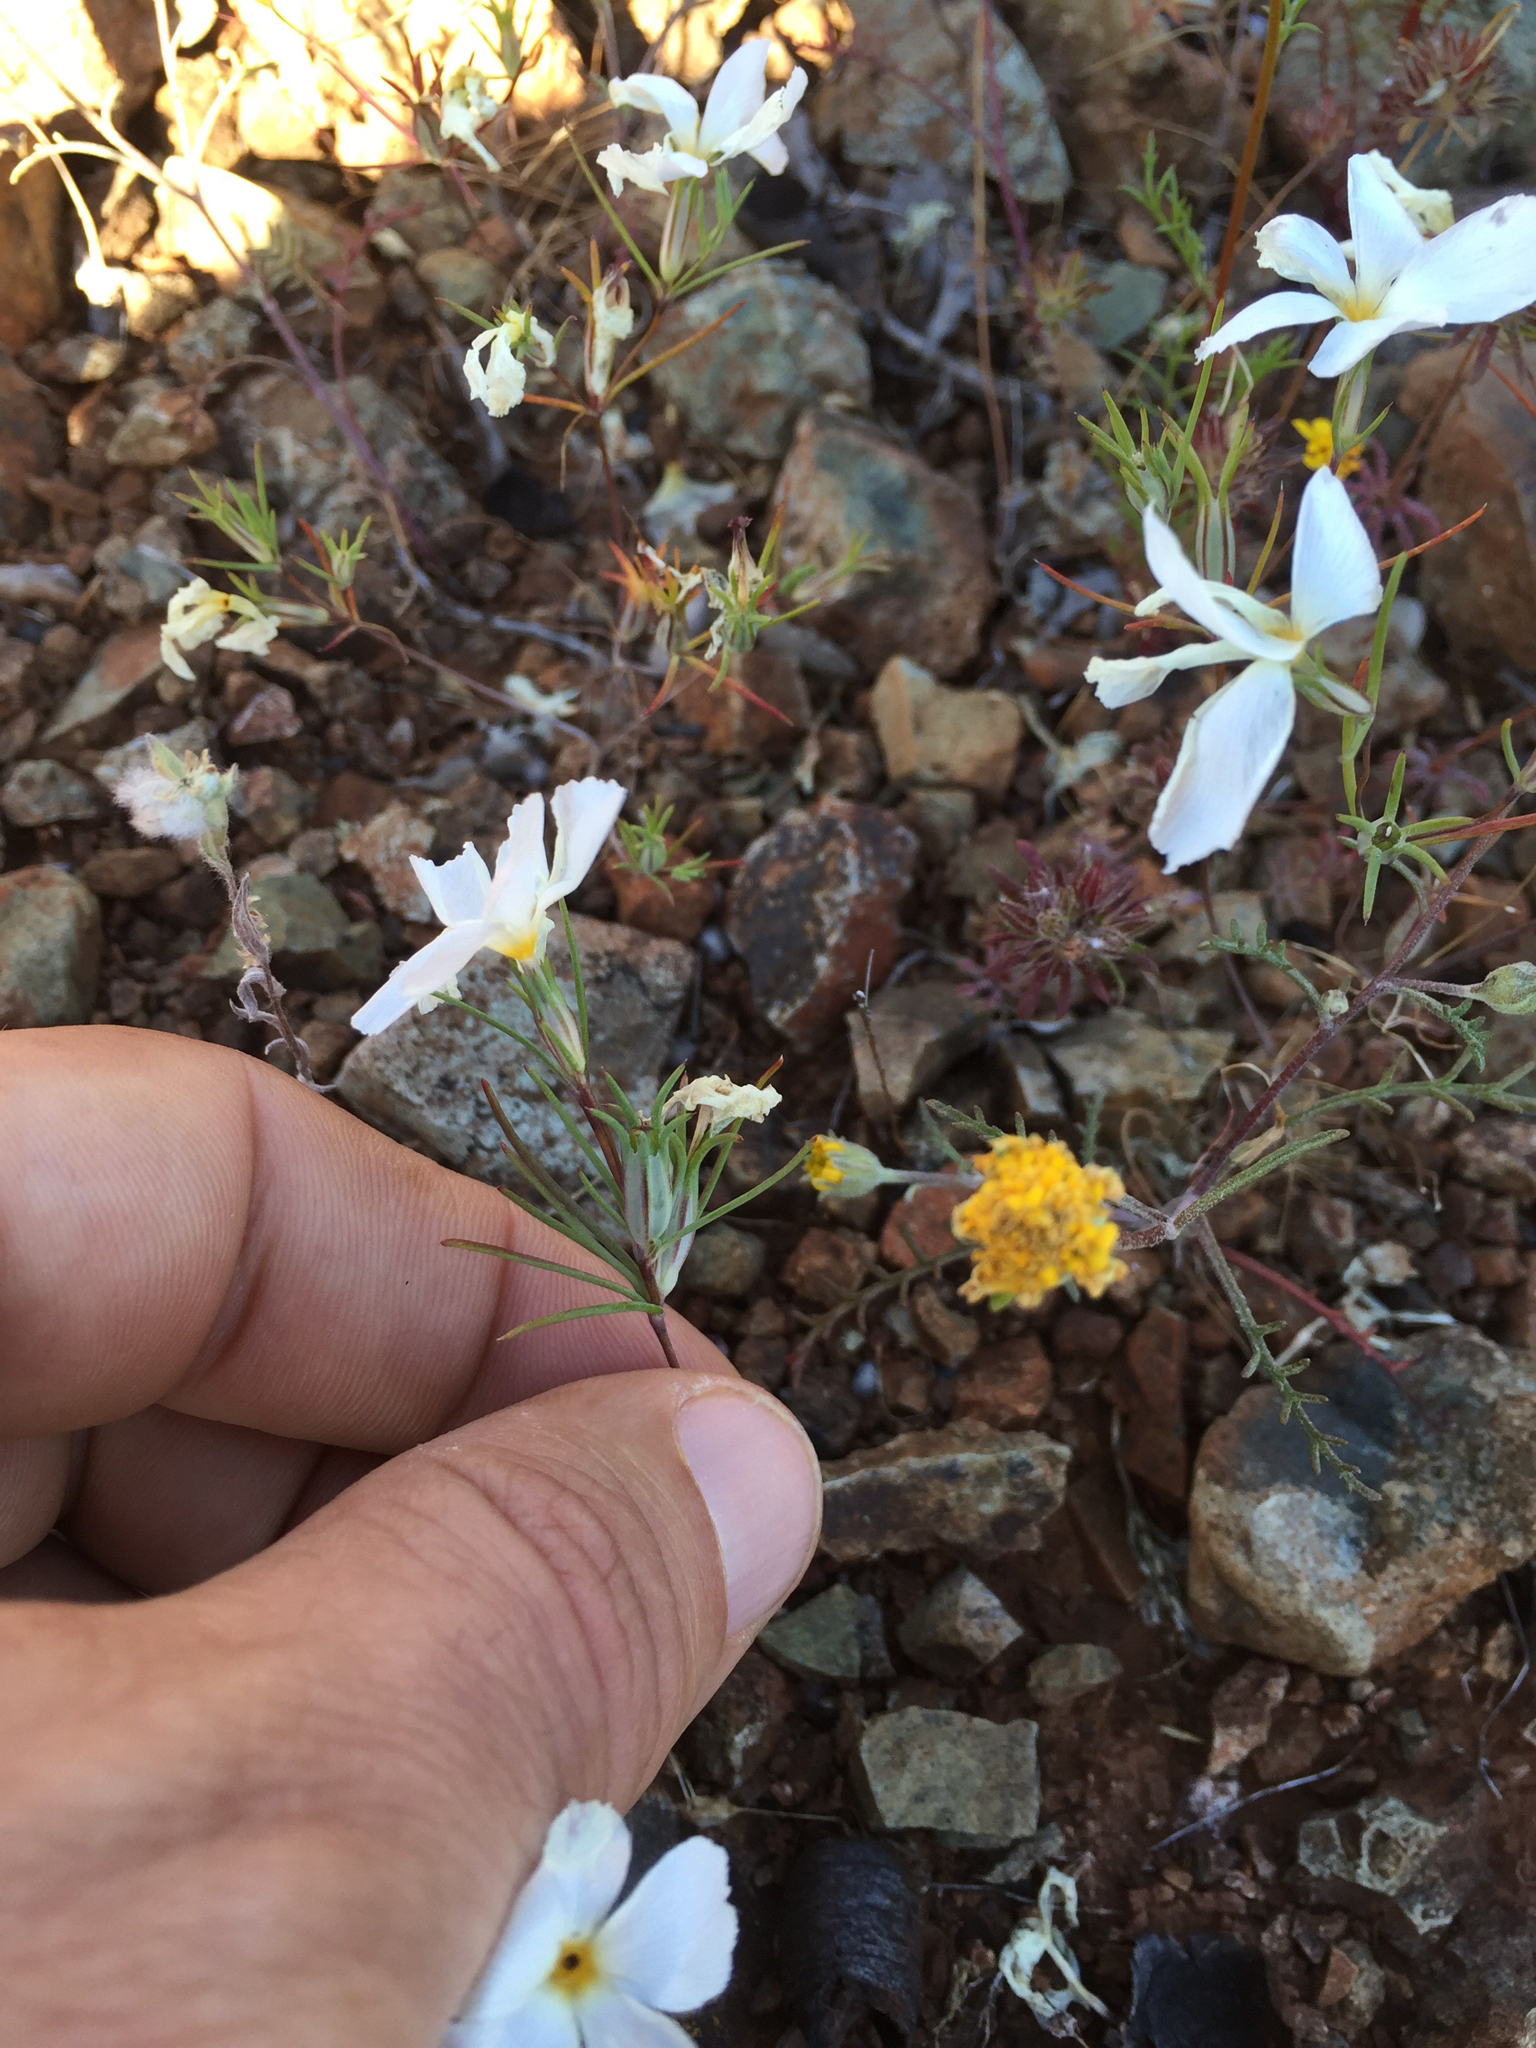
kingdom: Plantae
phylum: Tracheophyta
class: Magnoliopsida
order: Ericales
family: Polemoniaceae
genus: Linanthus
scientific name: Linanthus dichotomus
